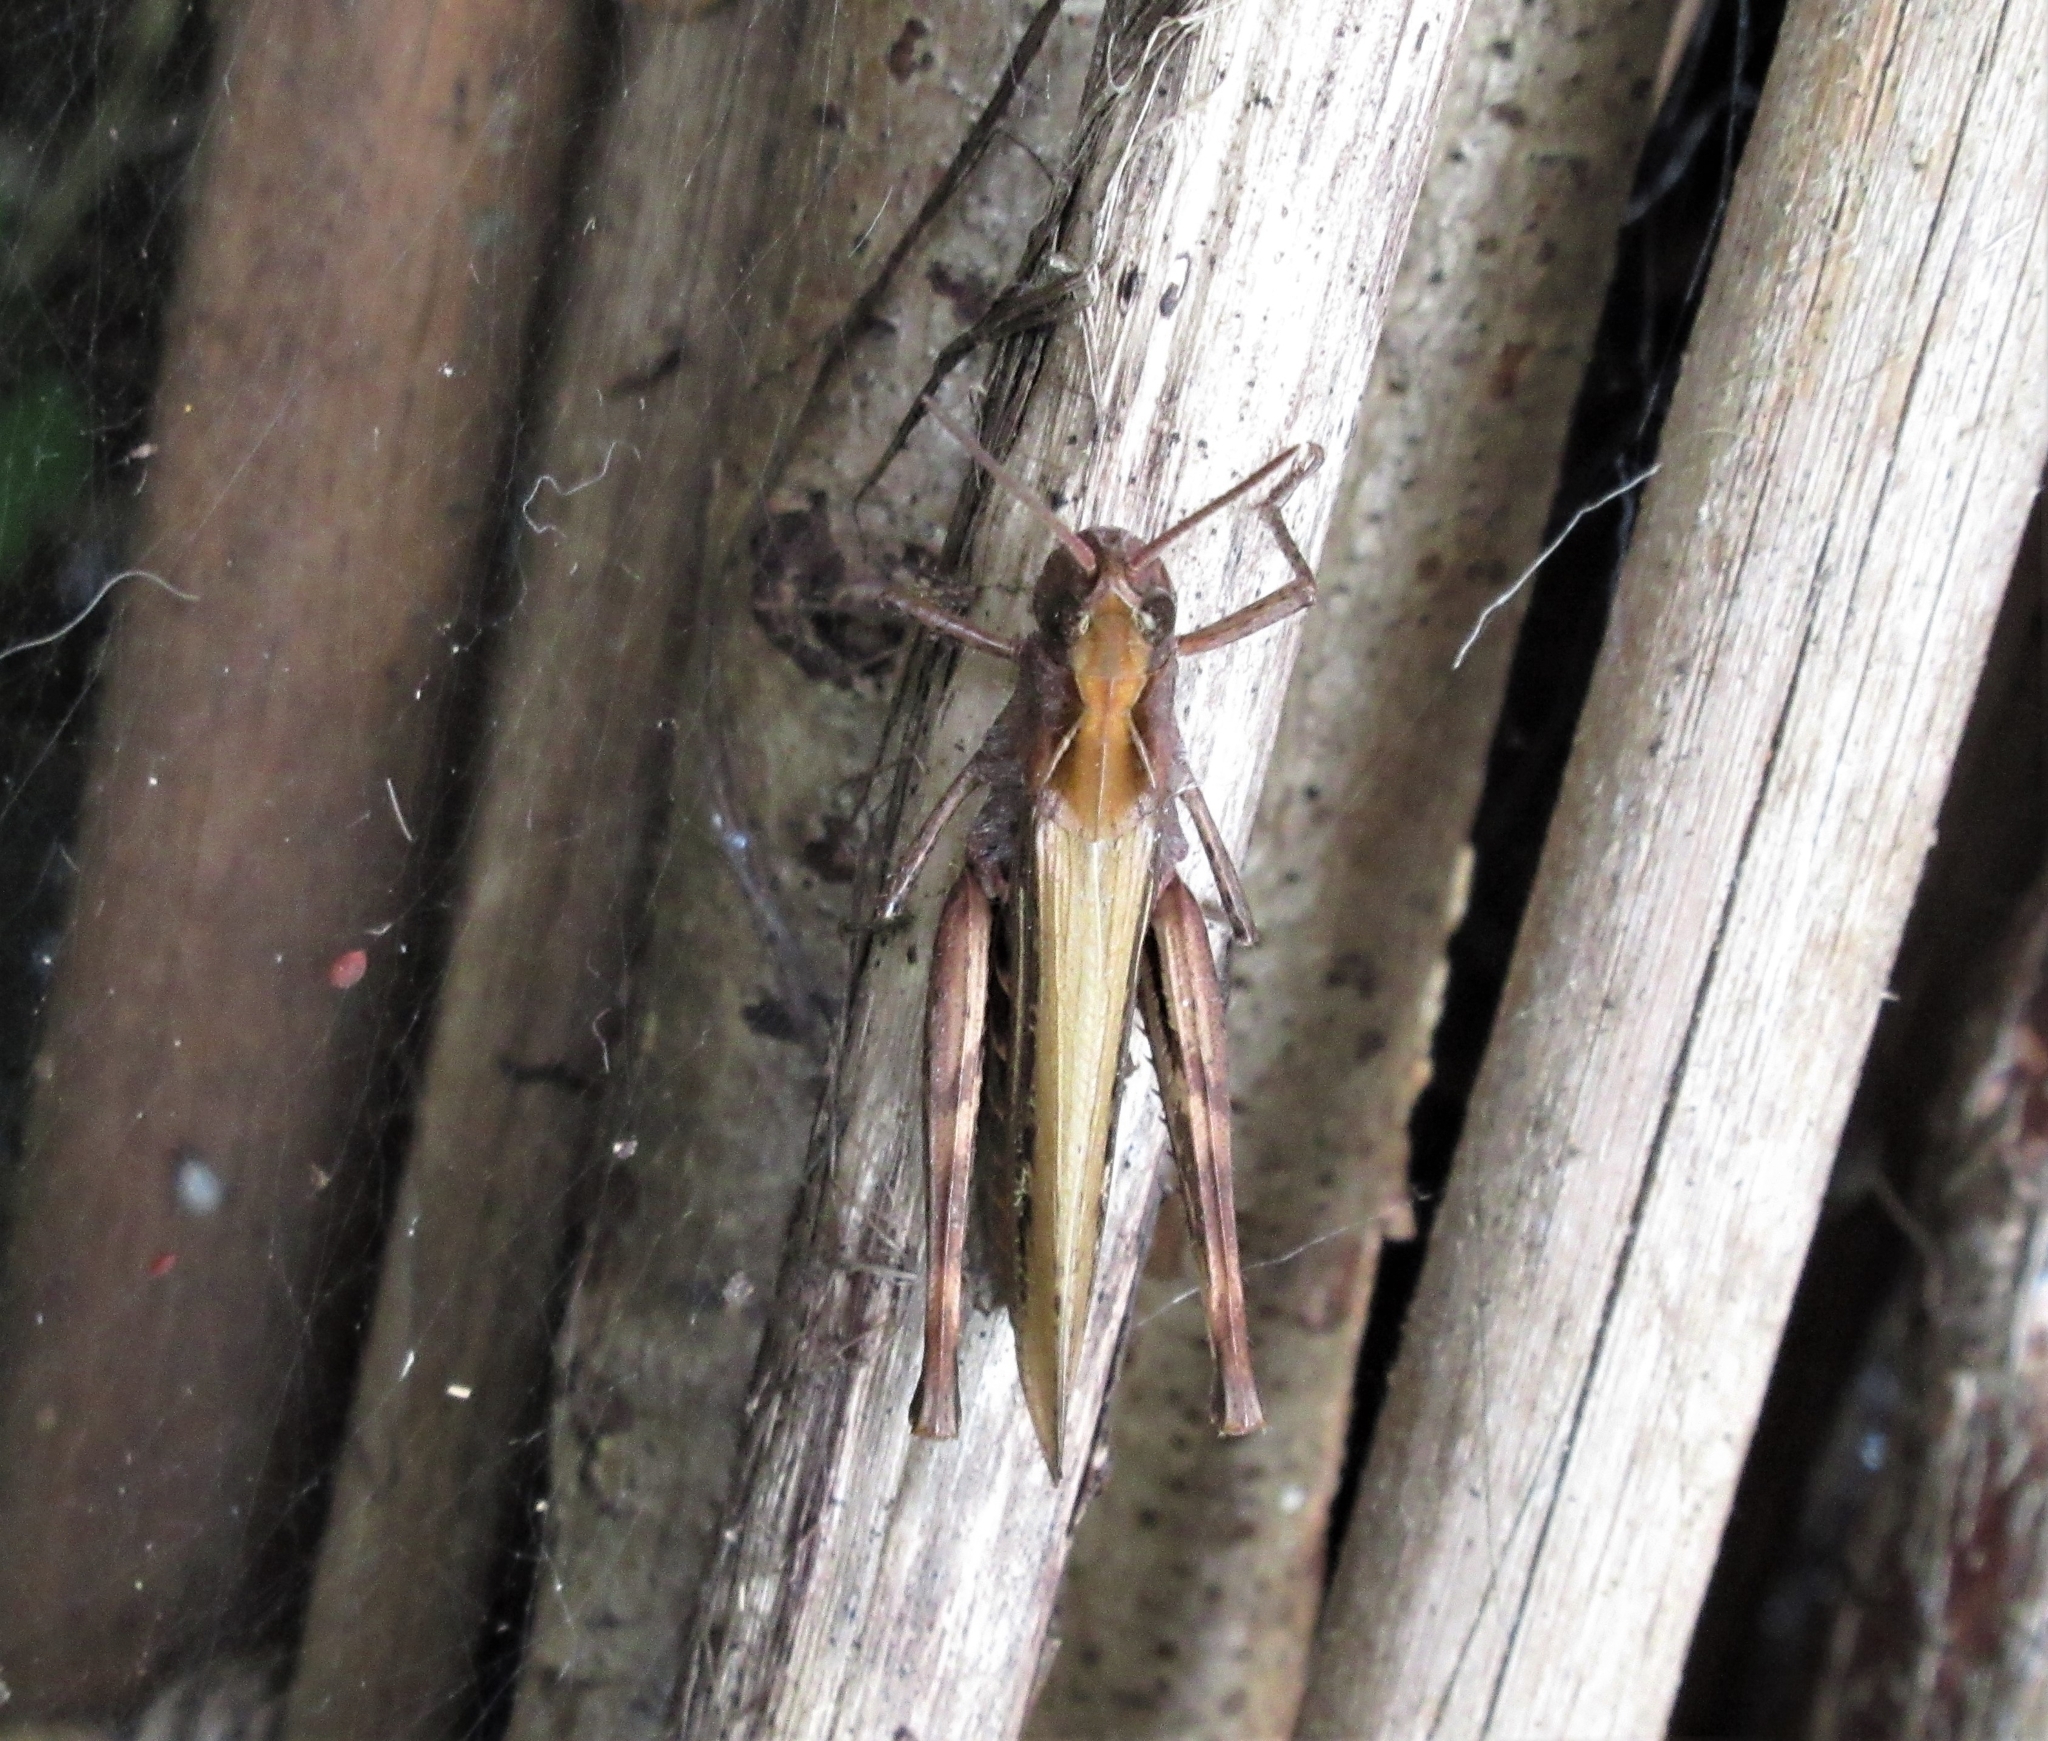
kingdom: Animalia
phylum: Arthropoda
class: Insecta
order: Orthoptera
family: Acrididae
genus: Chorthippus
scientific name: Chorthippus brunneus
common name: Field grasshopper
